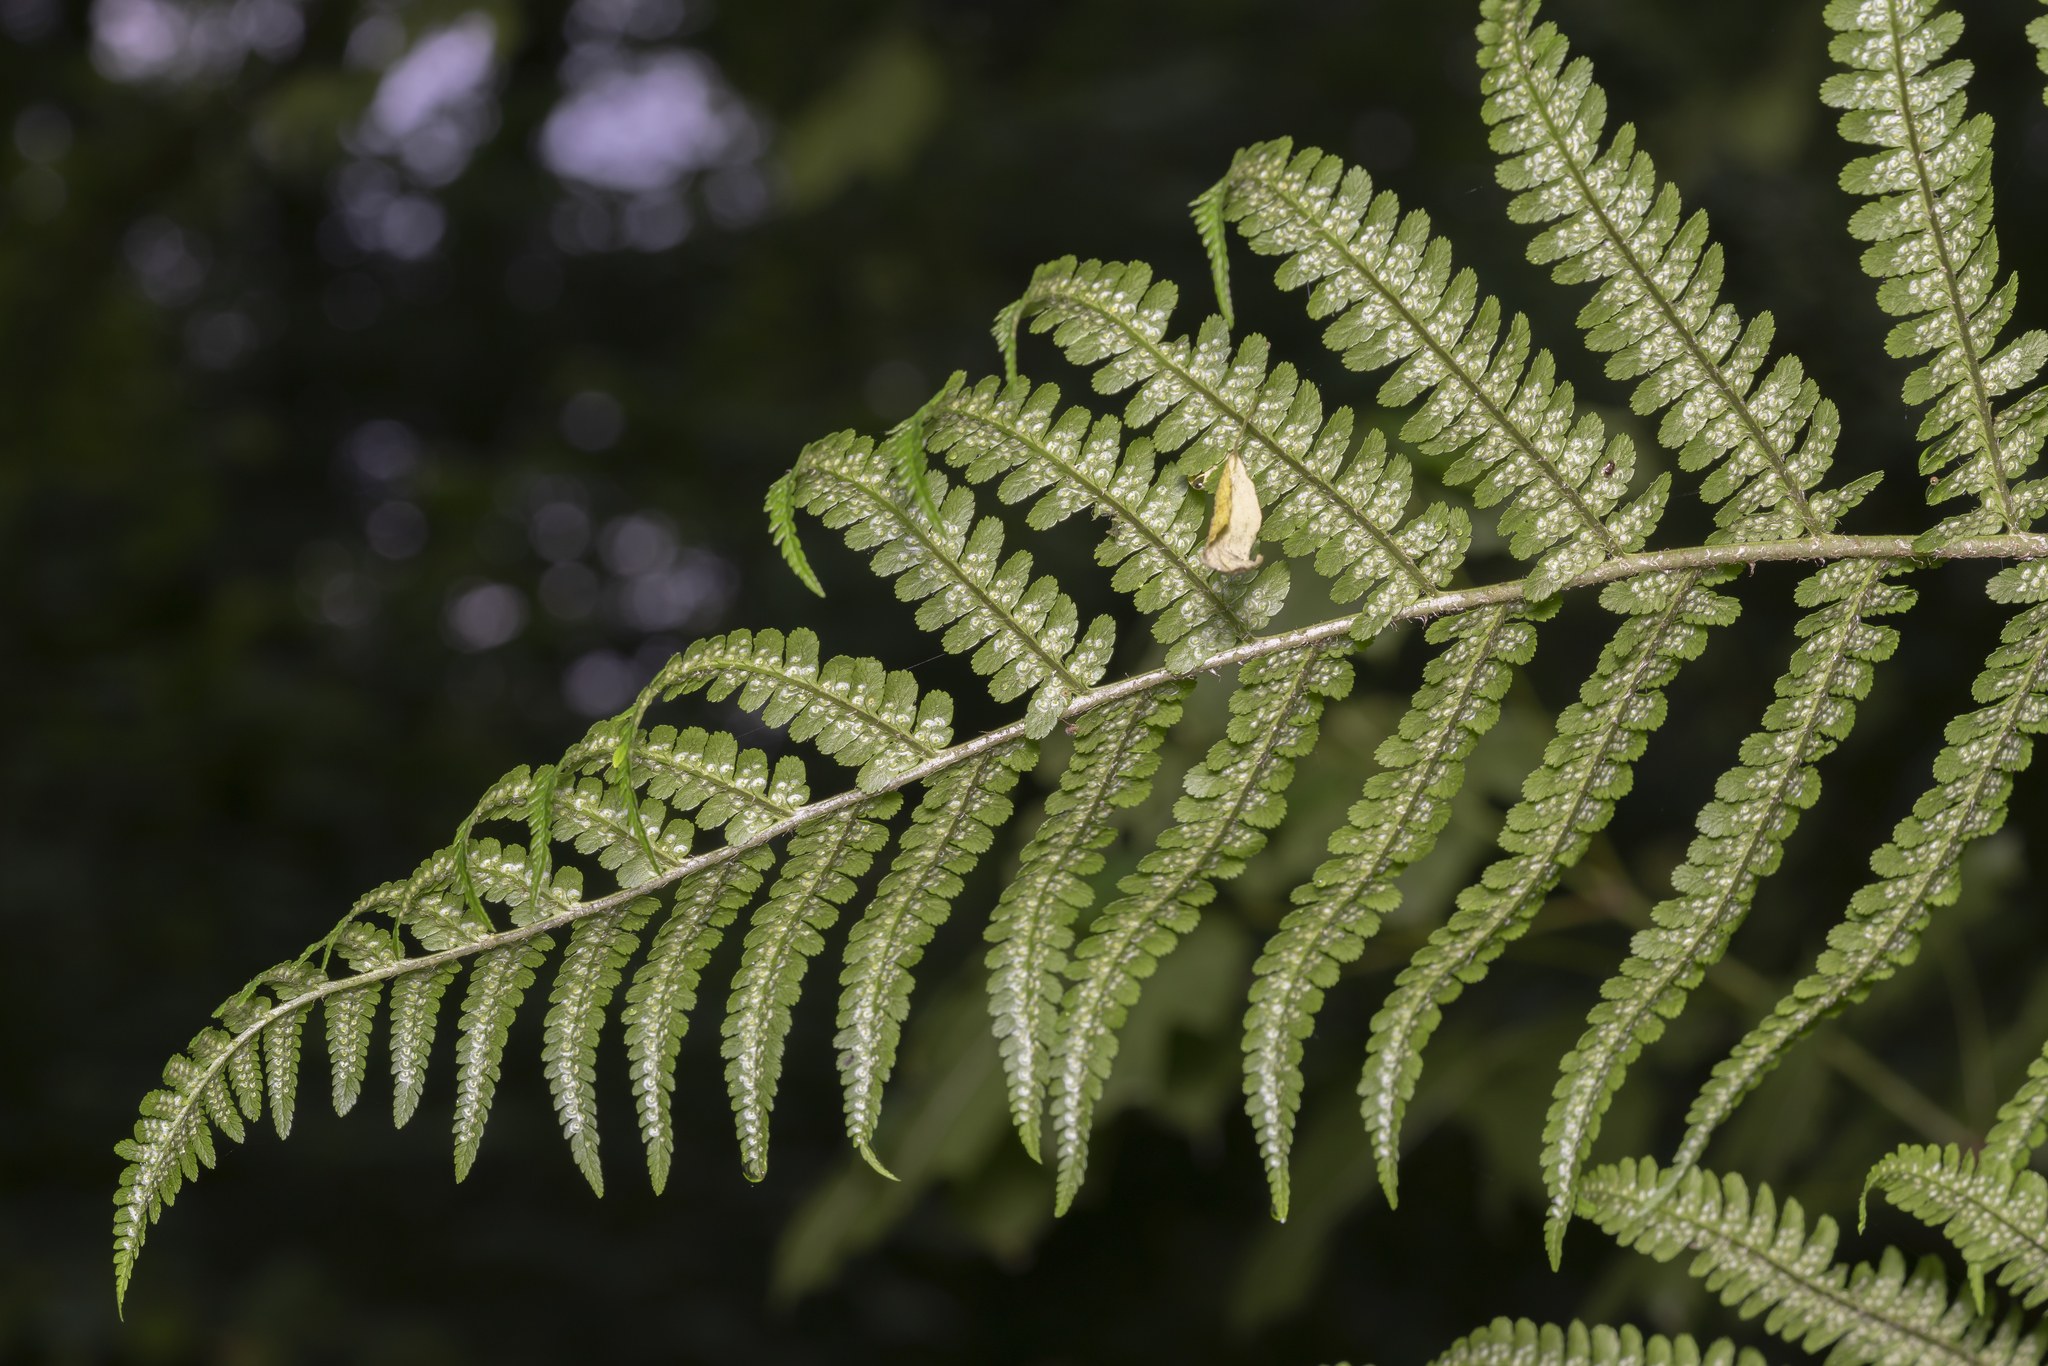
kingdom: Plantae
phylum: Tracheophyta
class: Polypodiopsida
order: Polypodiales
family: Dryopteridaceae
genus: Dryopteris
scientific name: Dryopteris filix-mas
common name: Male fern
